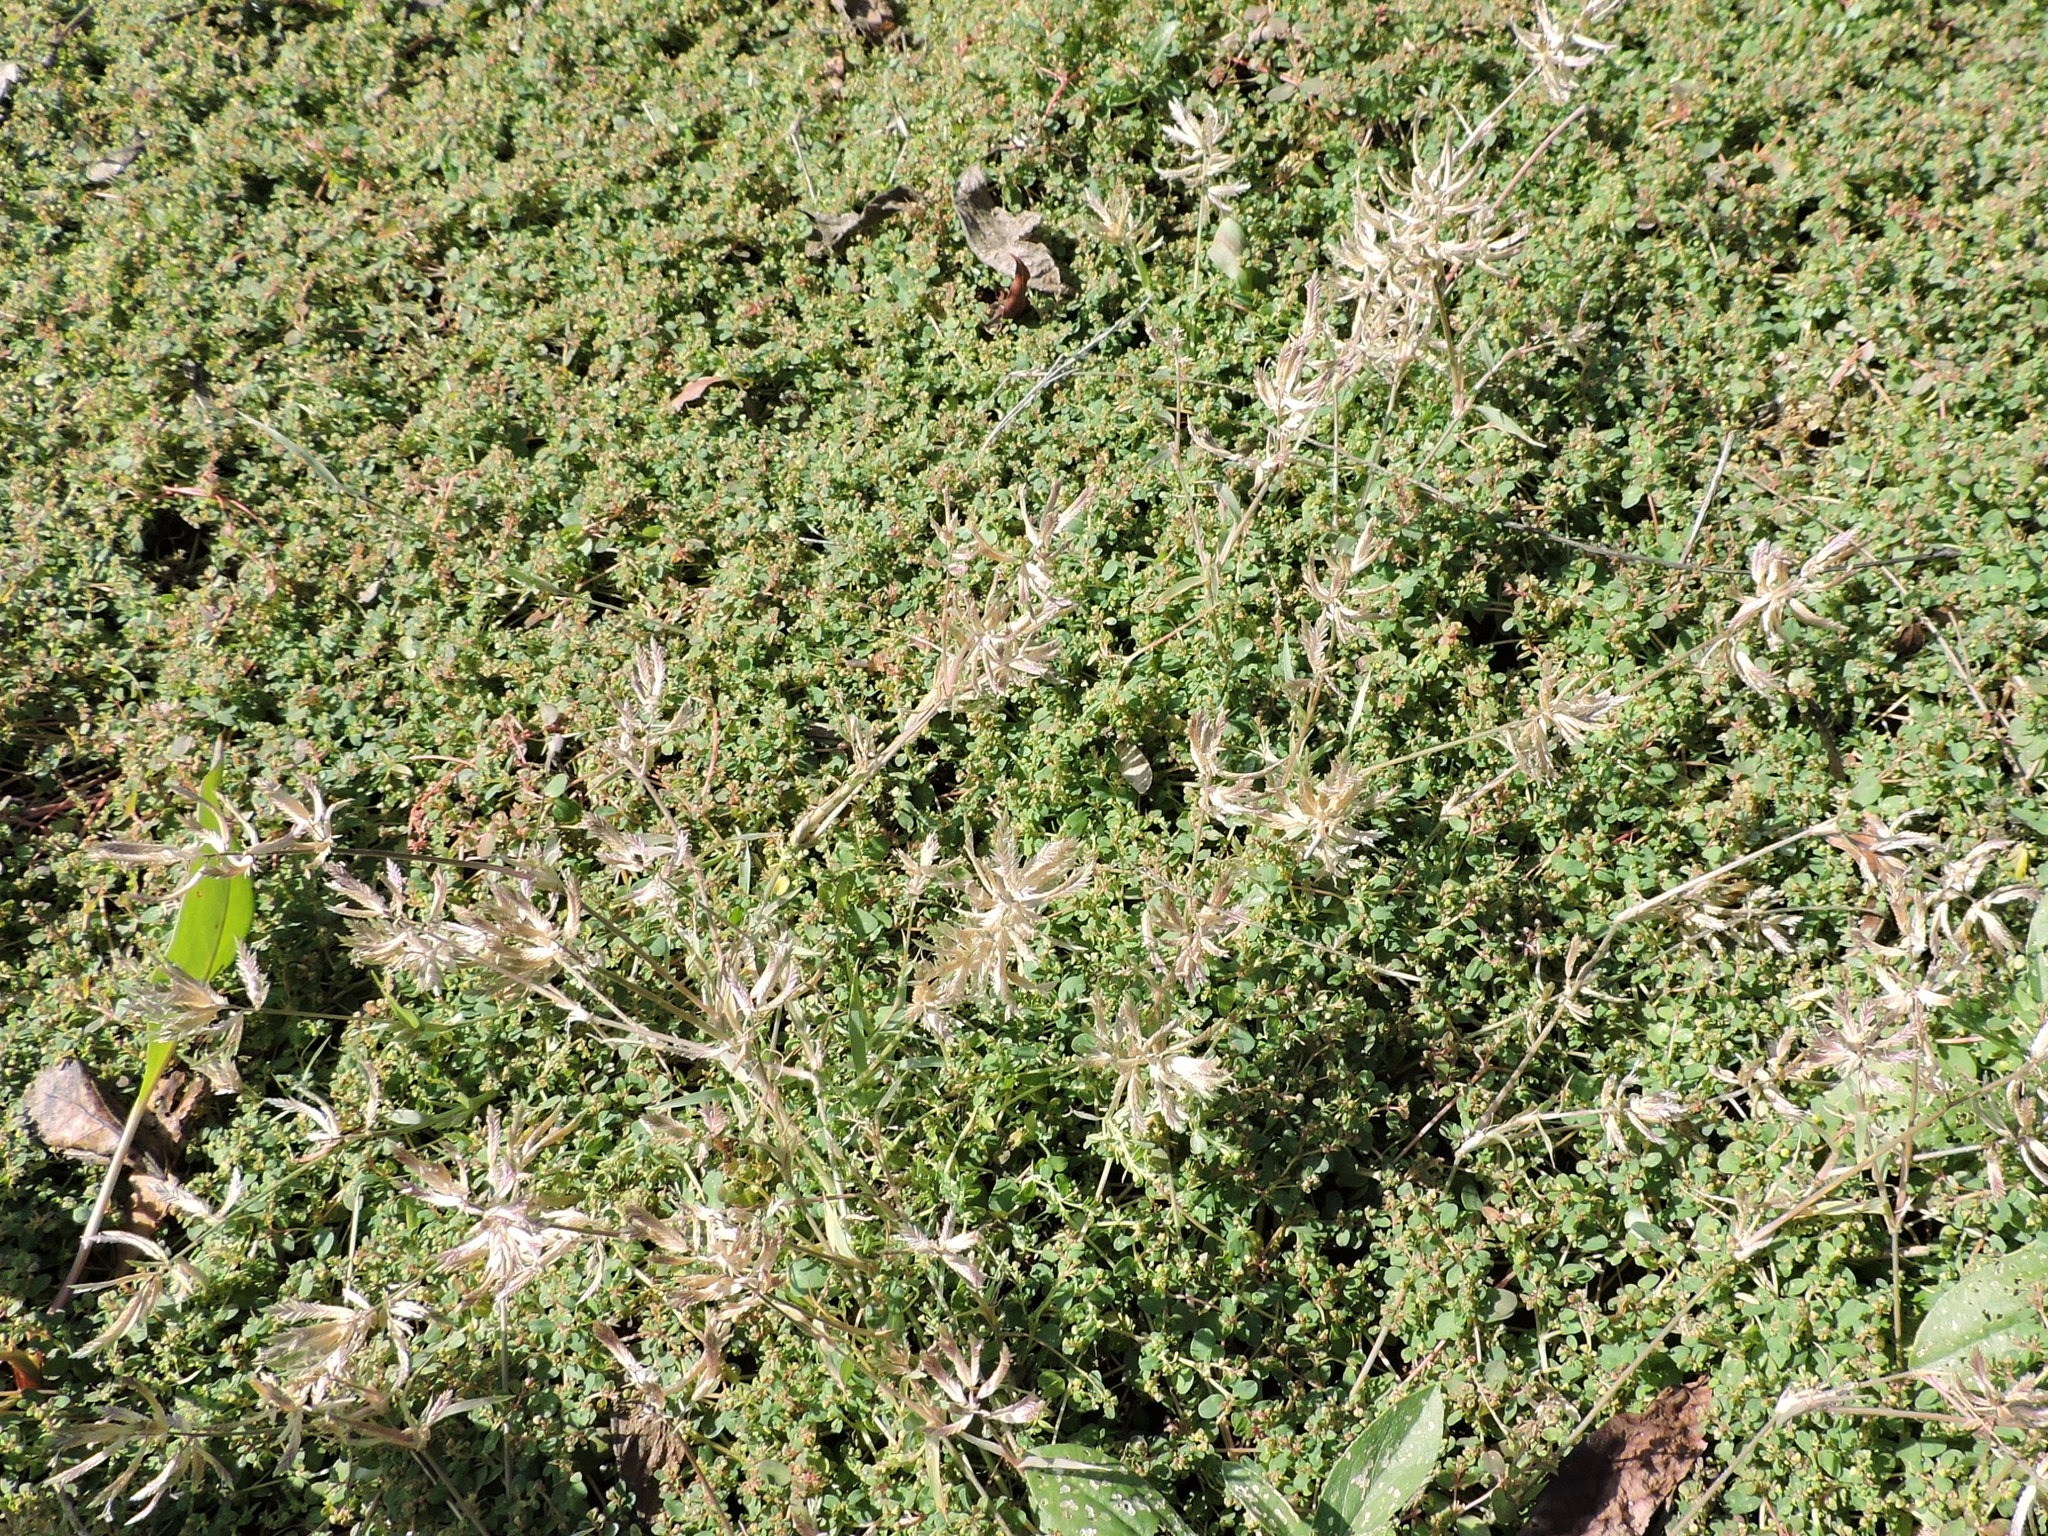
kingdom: Plantae
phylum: Tracheophyta
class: Liliopsida
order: Poales
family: Poaceae
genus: Eragrostis
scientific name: Eragrostis reptans
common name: Creeping love grass
